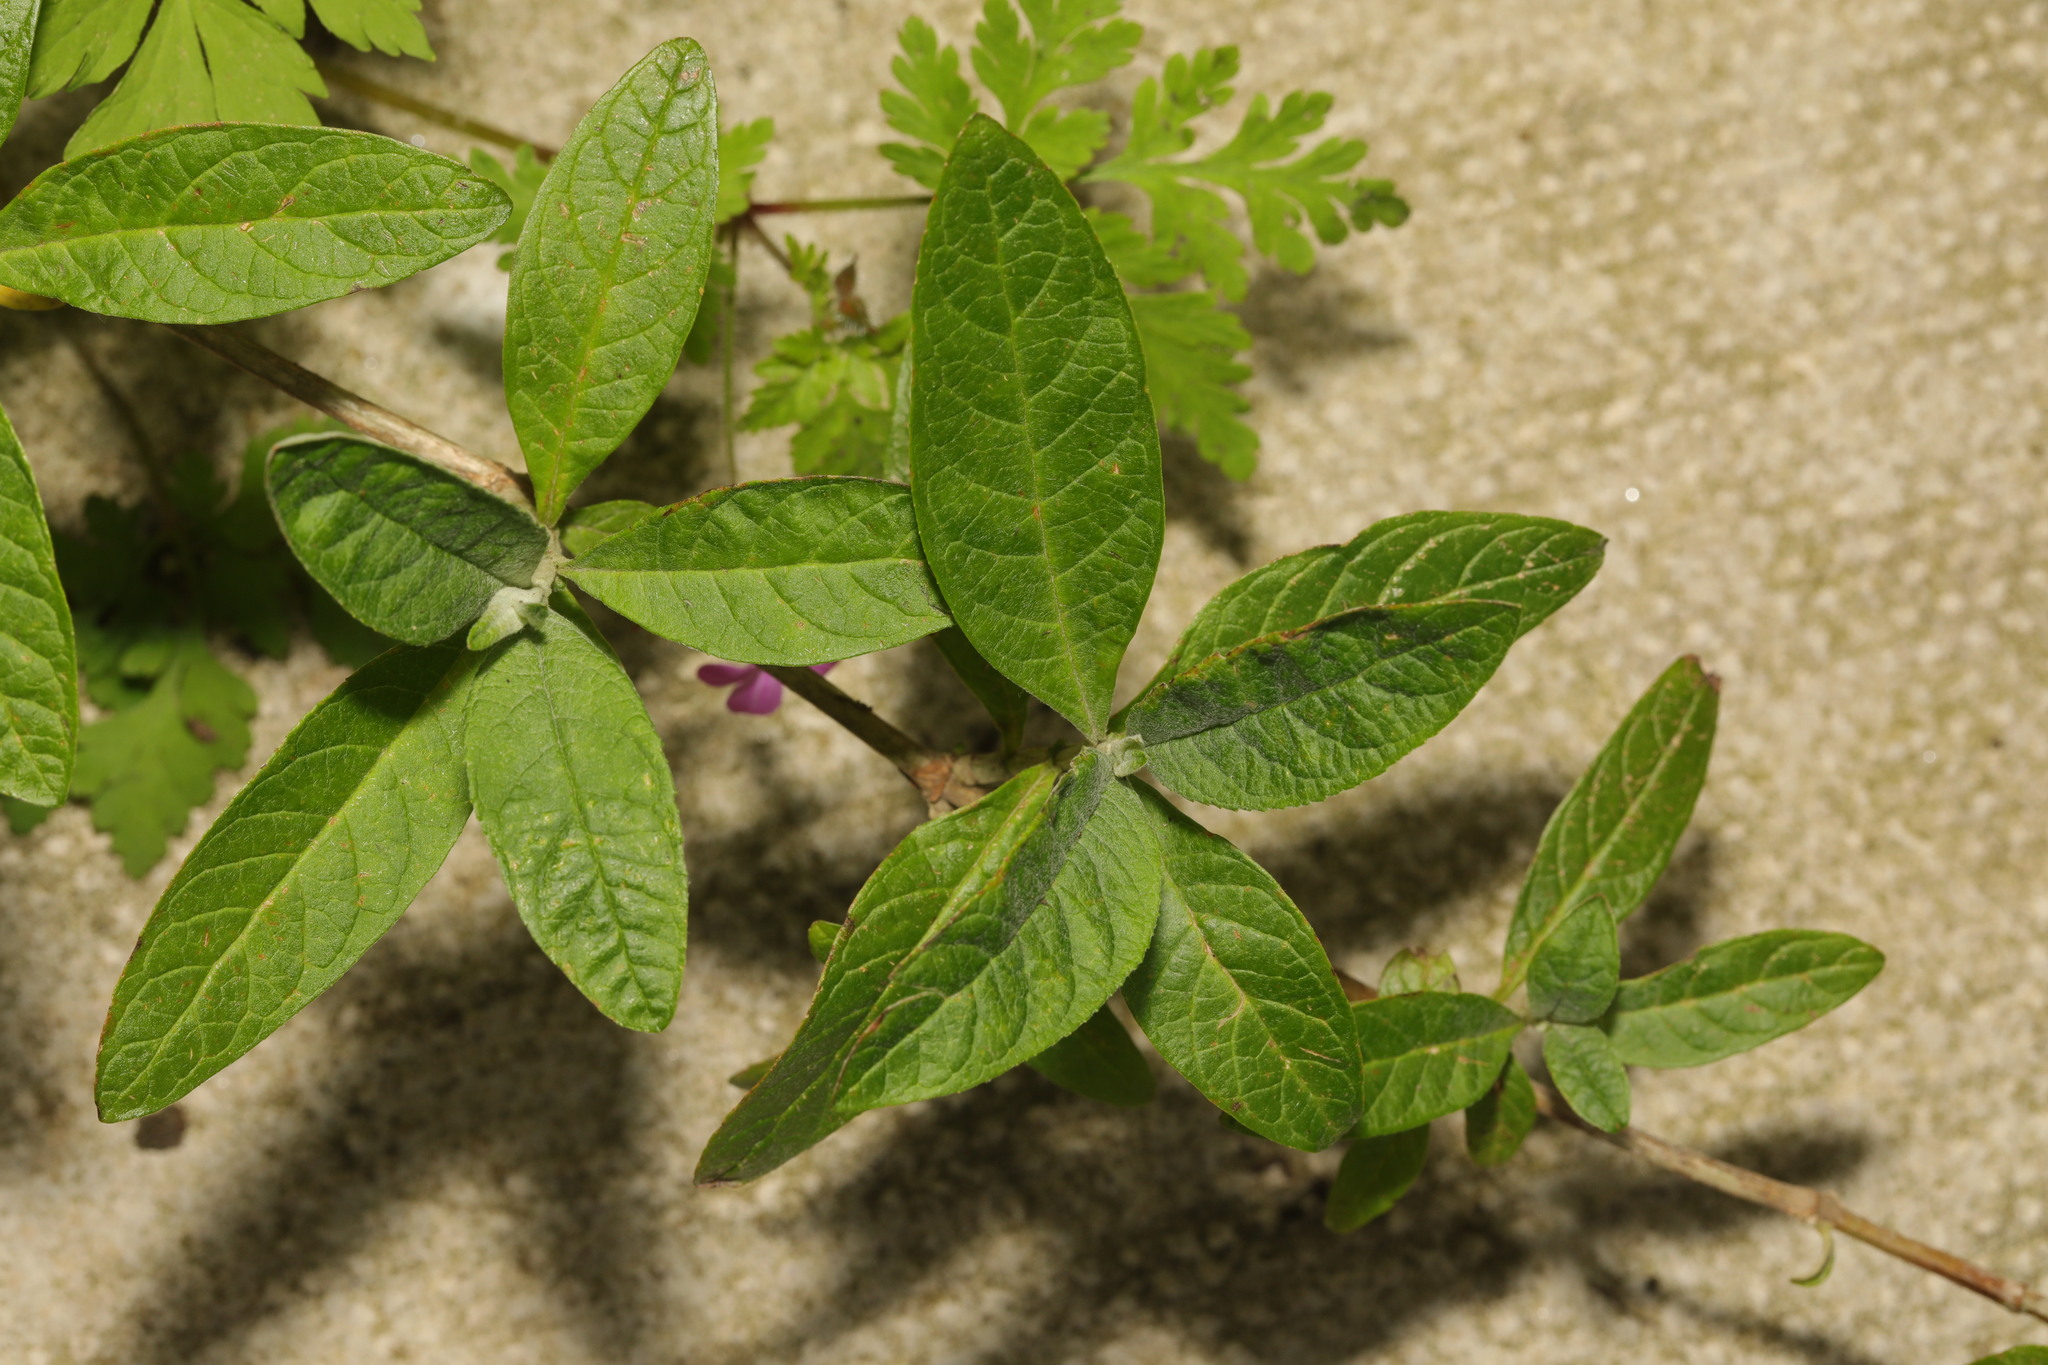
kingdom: Plantae
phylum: Tracheophyta
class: Magnoliopsida
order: Lamiales
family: Scrophulariaceae
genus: Buddleja
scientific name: Buddleja davidii
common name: Butterfly-bush
